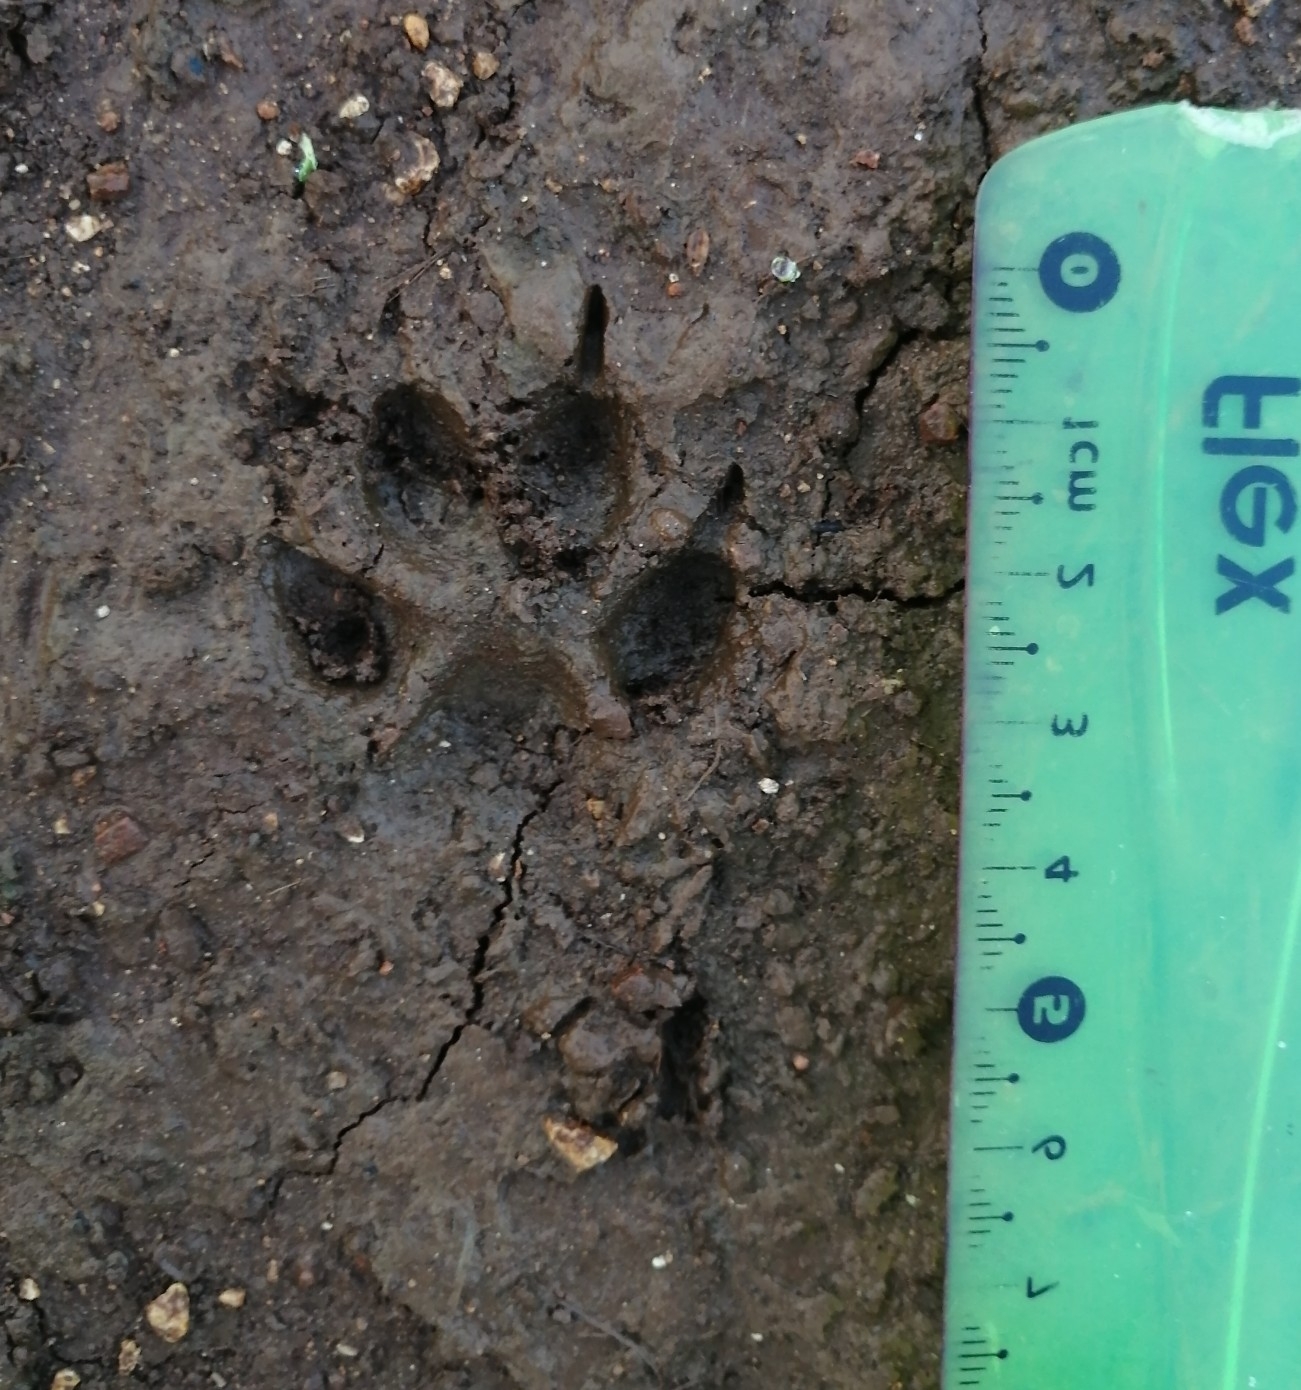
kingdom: Animalia
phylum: Chordata
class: Mammalia
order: Carnivora
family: Canidae
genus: Canis
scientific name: Canis lupus
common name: Gray wolf
